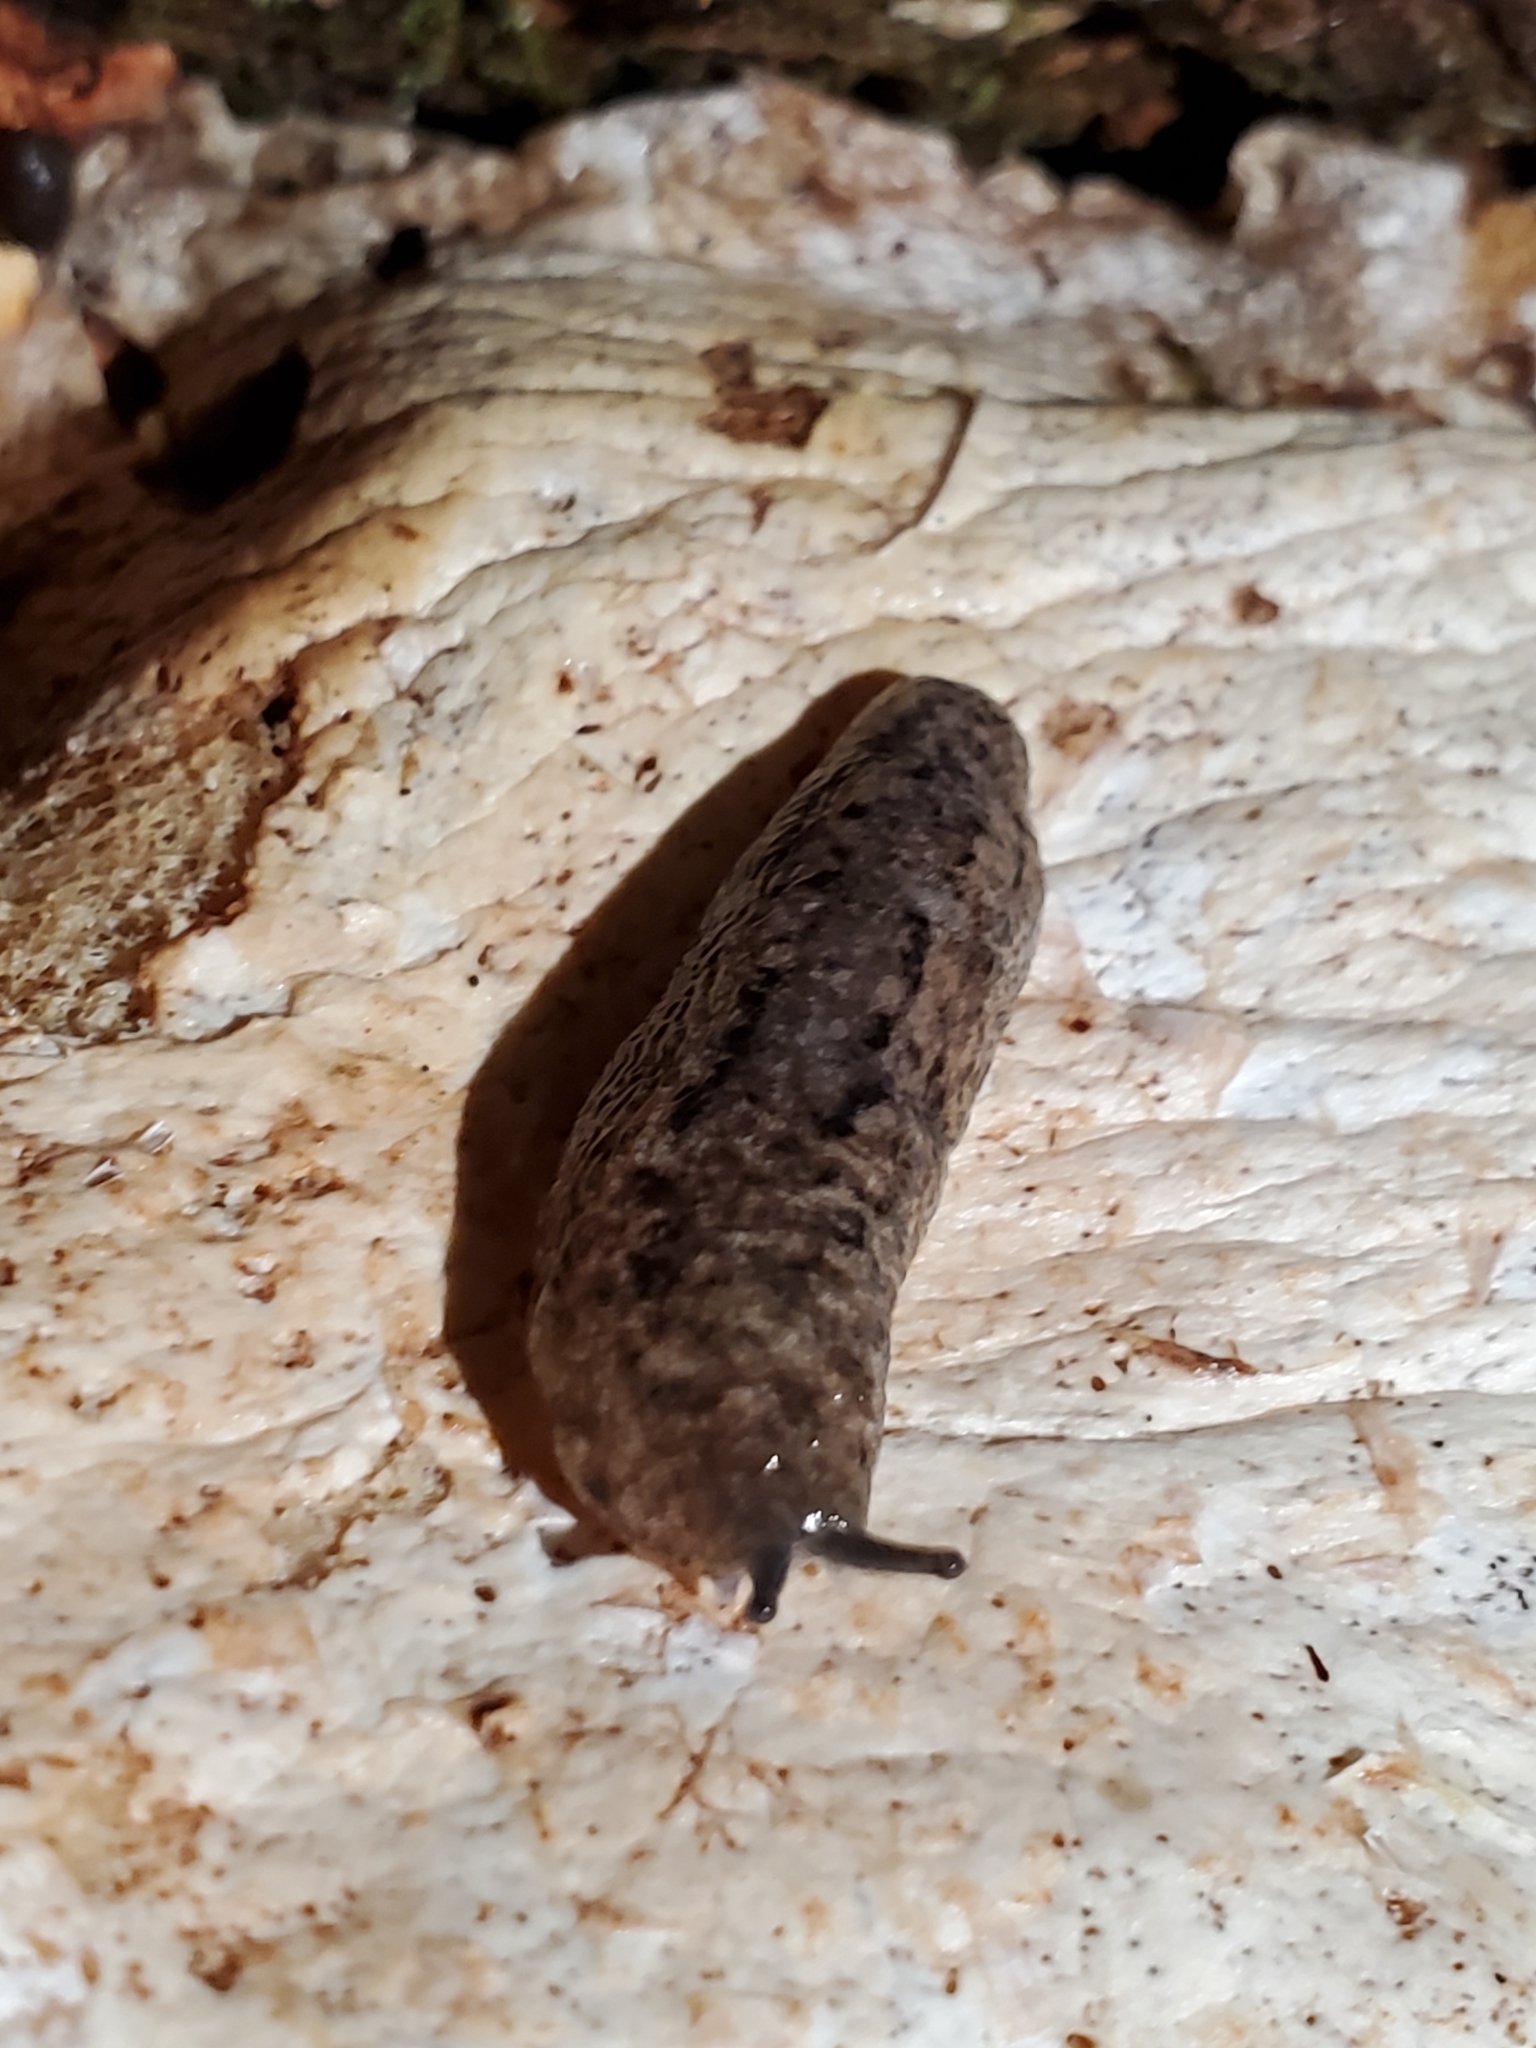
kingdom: Animalia
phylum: Mollusca
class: Gastropoda
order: Stylommatophora
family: Philomycidae
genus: Philomycus
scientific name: Philomycus carolinianus
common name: Carolina mantleslug
